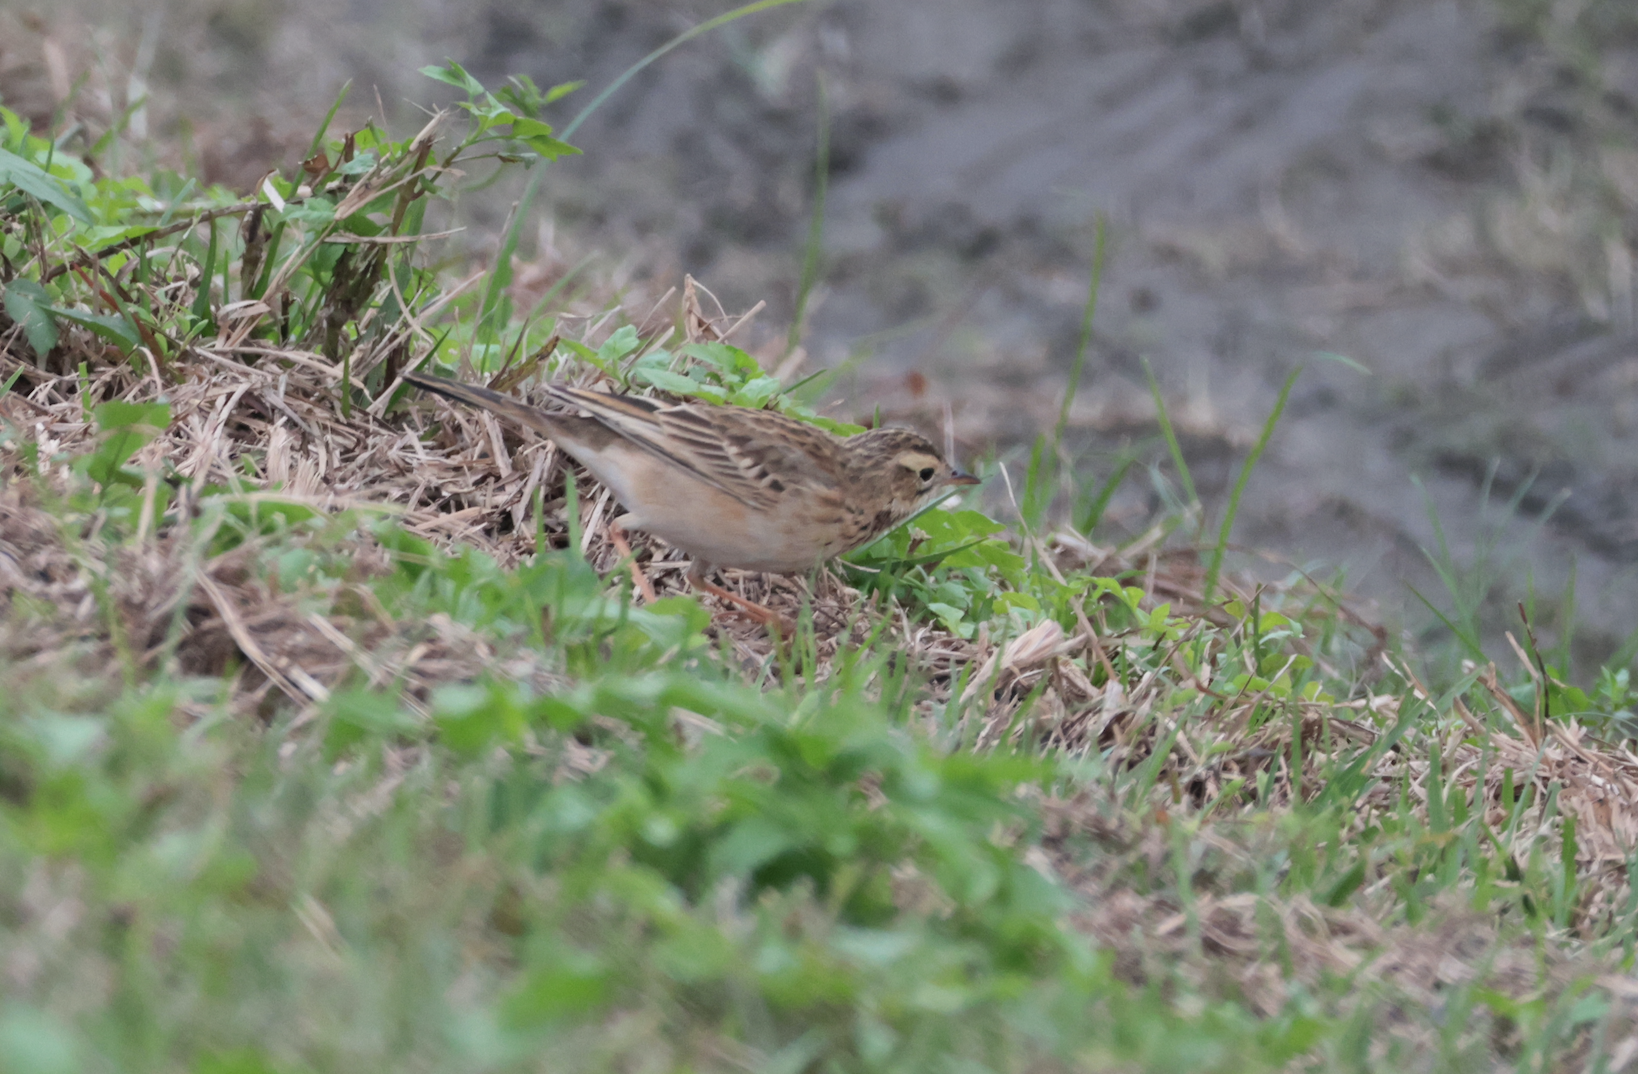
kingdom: Animalia
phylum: Chordata
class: Aves
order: Passeriformes
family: Motacillidae
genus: Anthus
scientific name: Anthus richardi
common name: Richard's pipit
